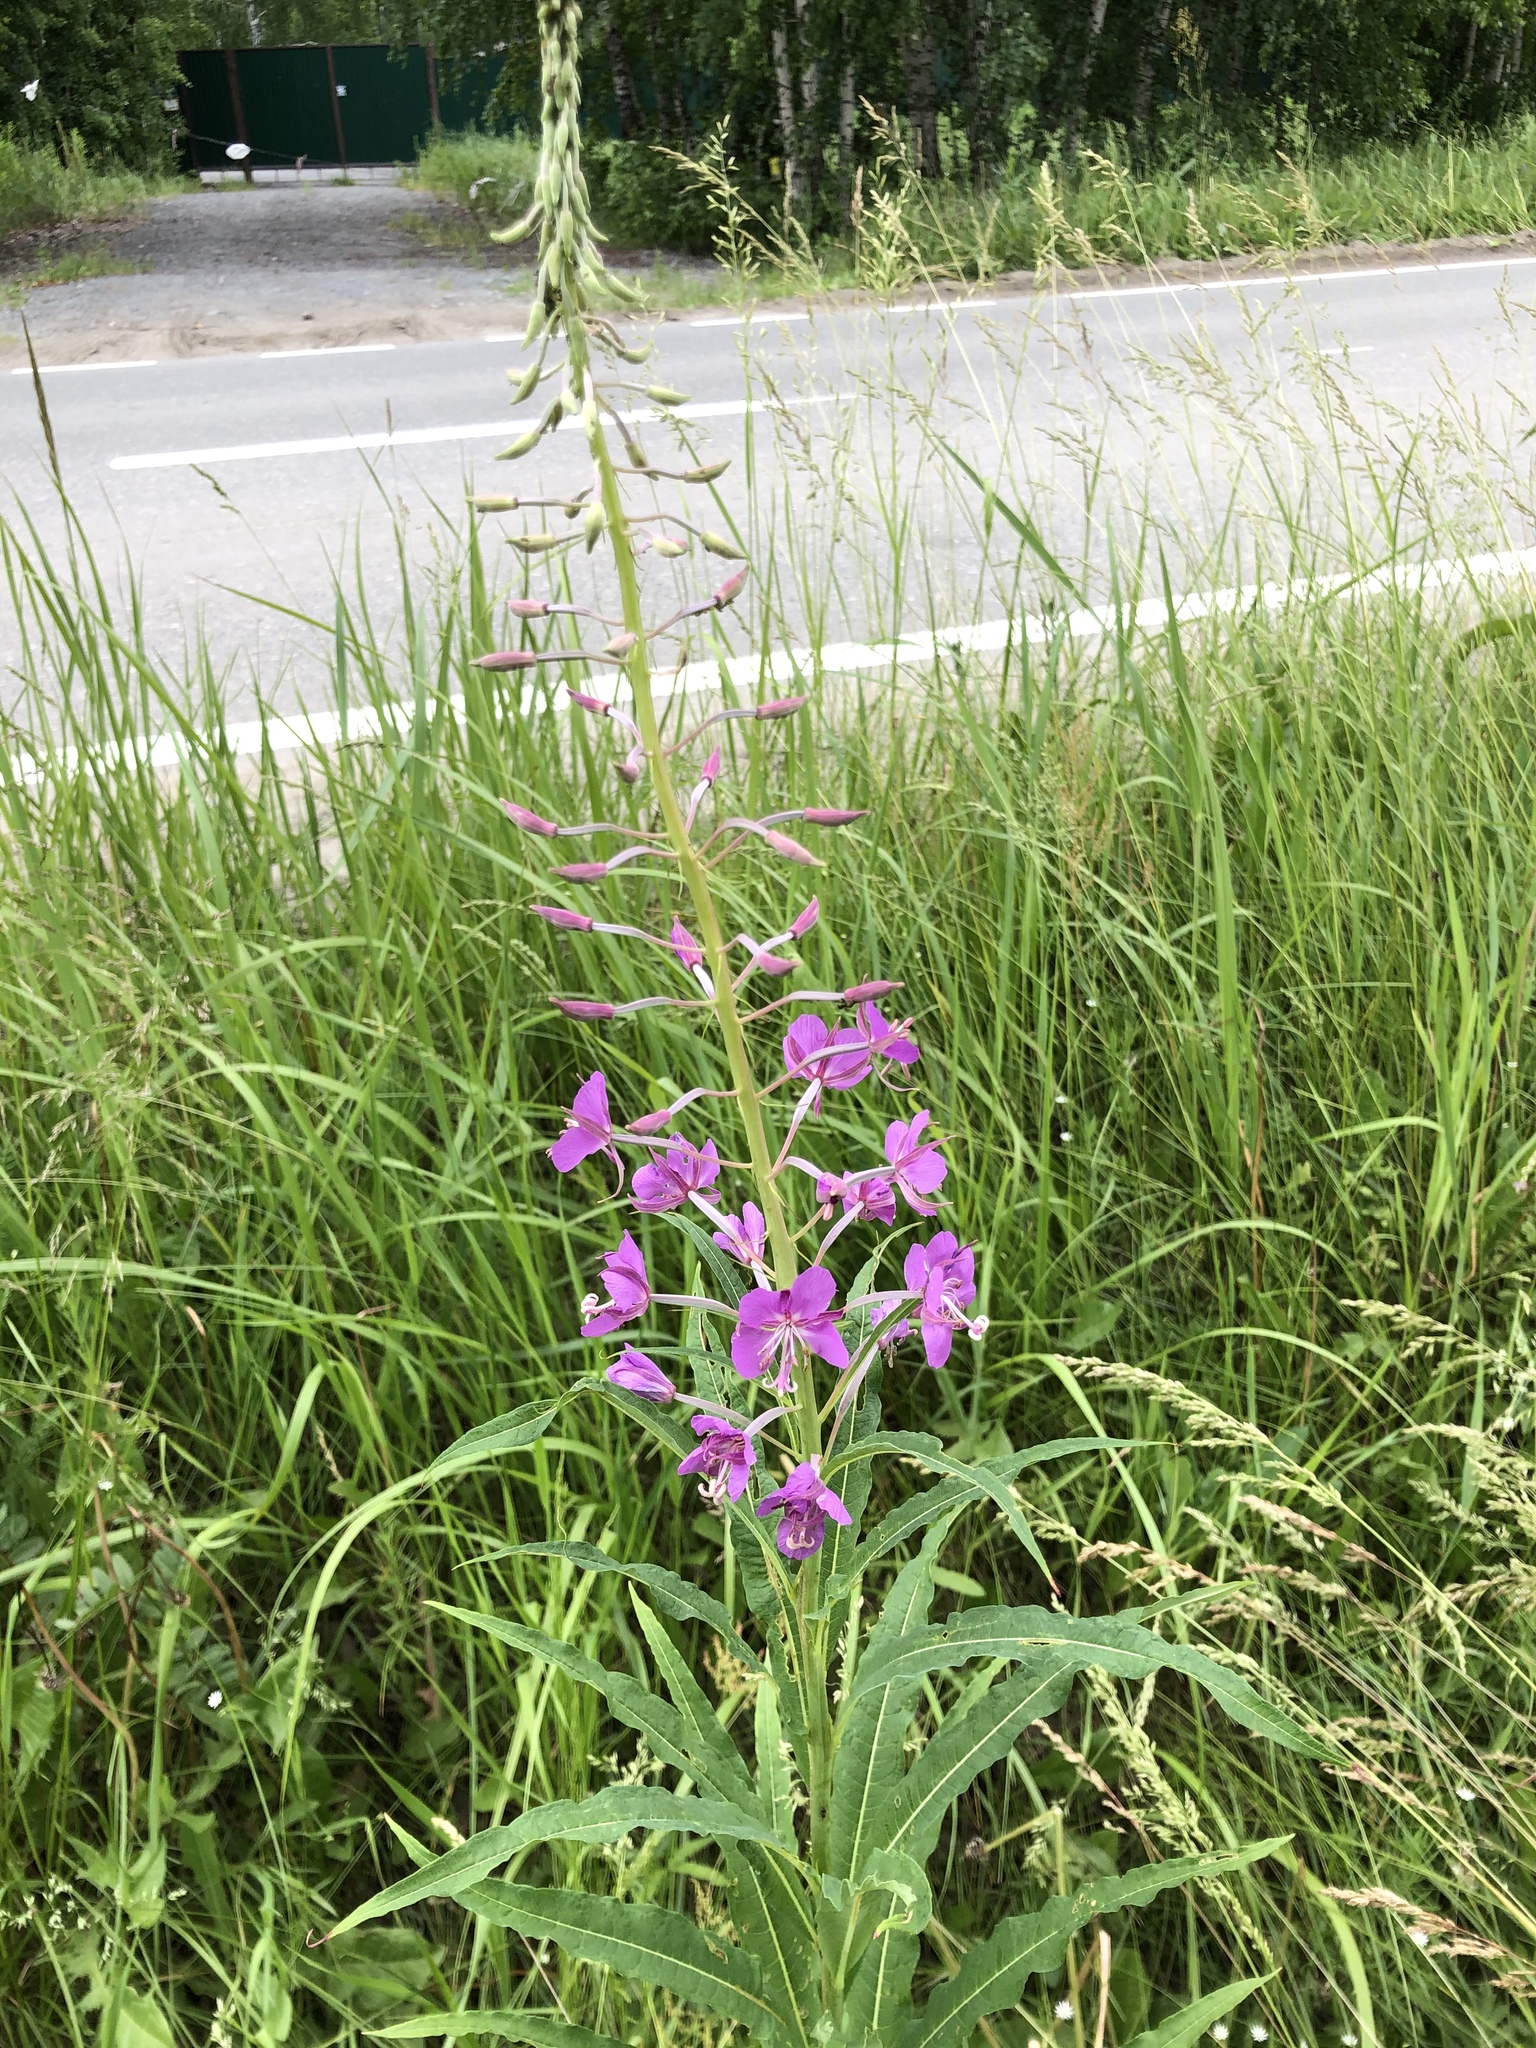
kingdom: Plantae
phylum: Tracheophyta
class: Magnoliopsida
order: Myrtales
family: Onagraceae
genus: Chamaenerion
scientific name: Chamaenerion angustifolium
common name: Fireweed
